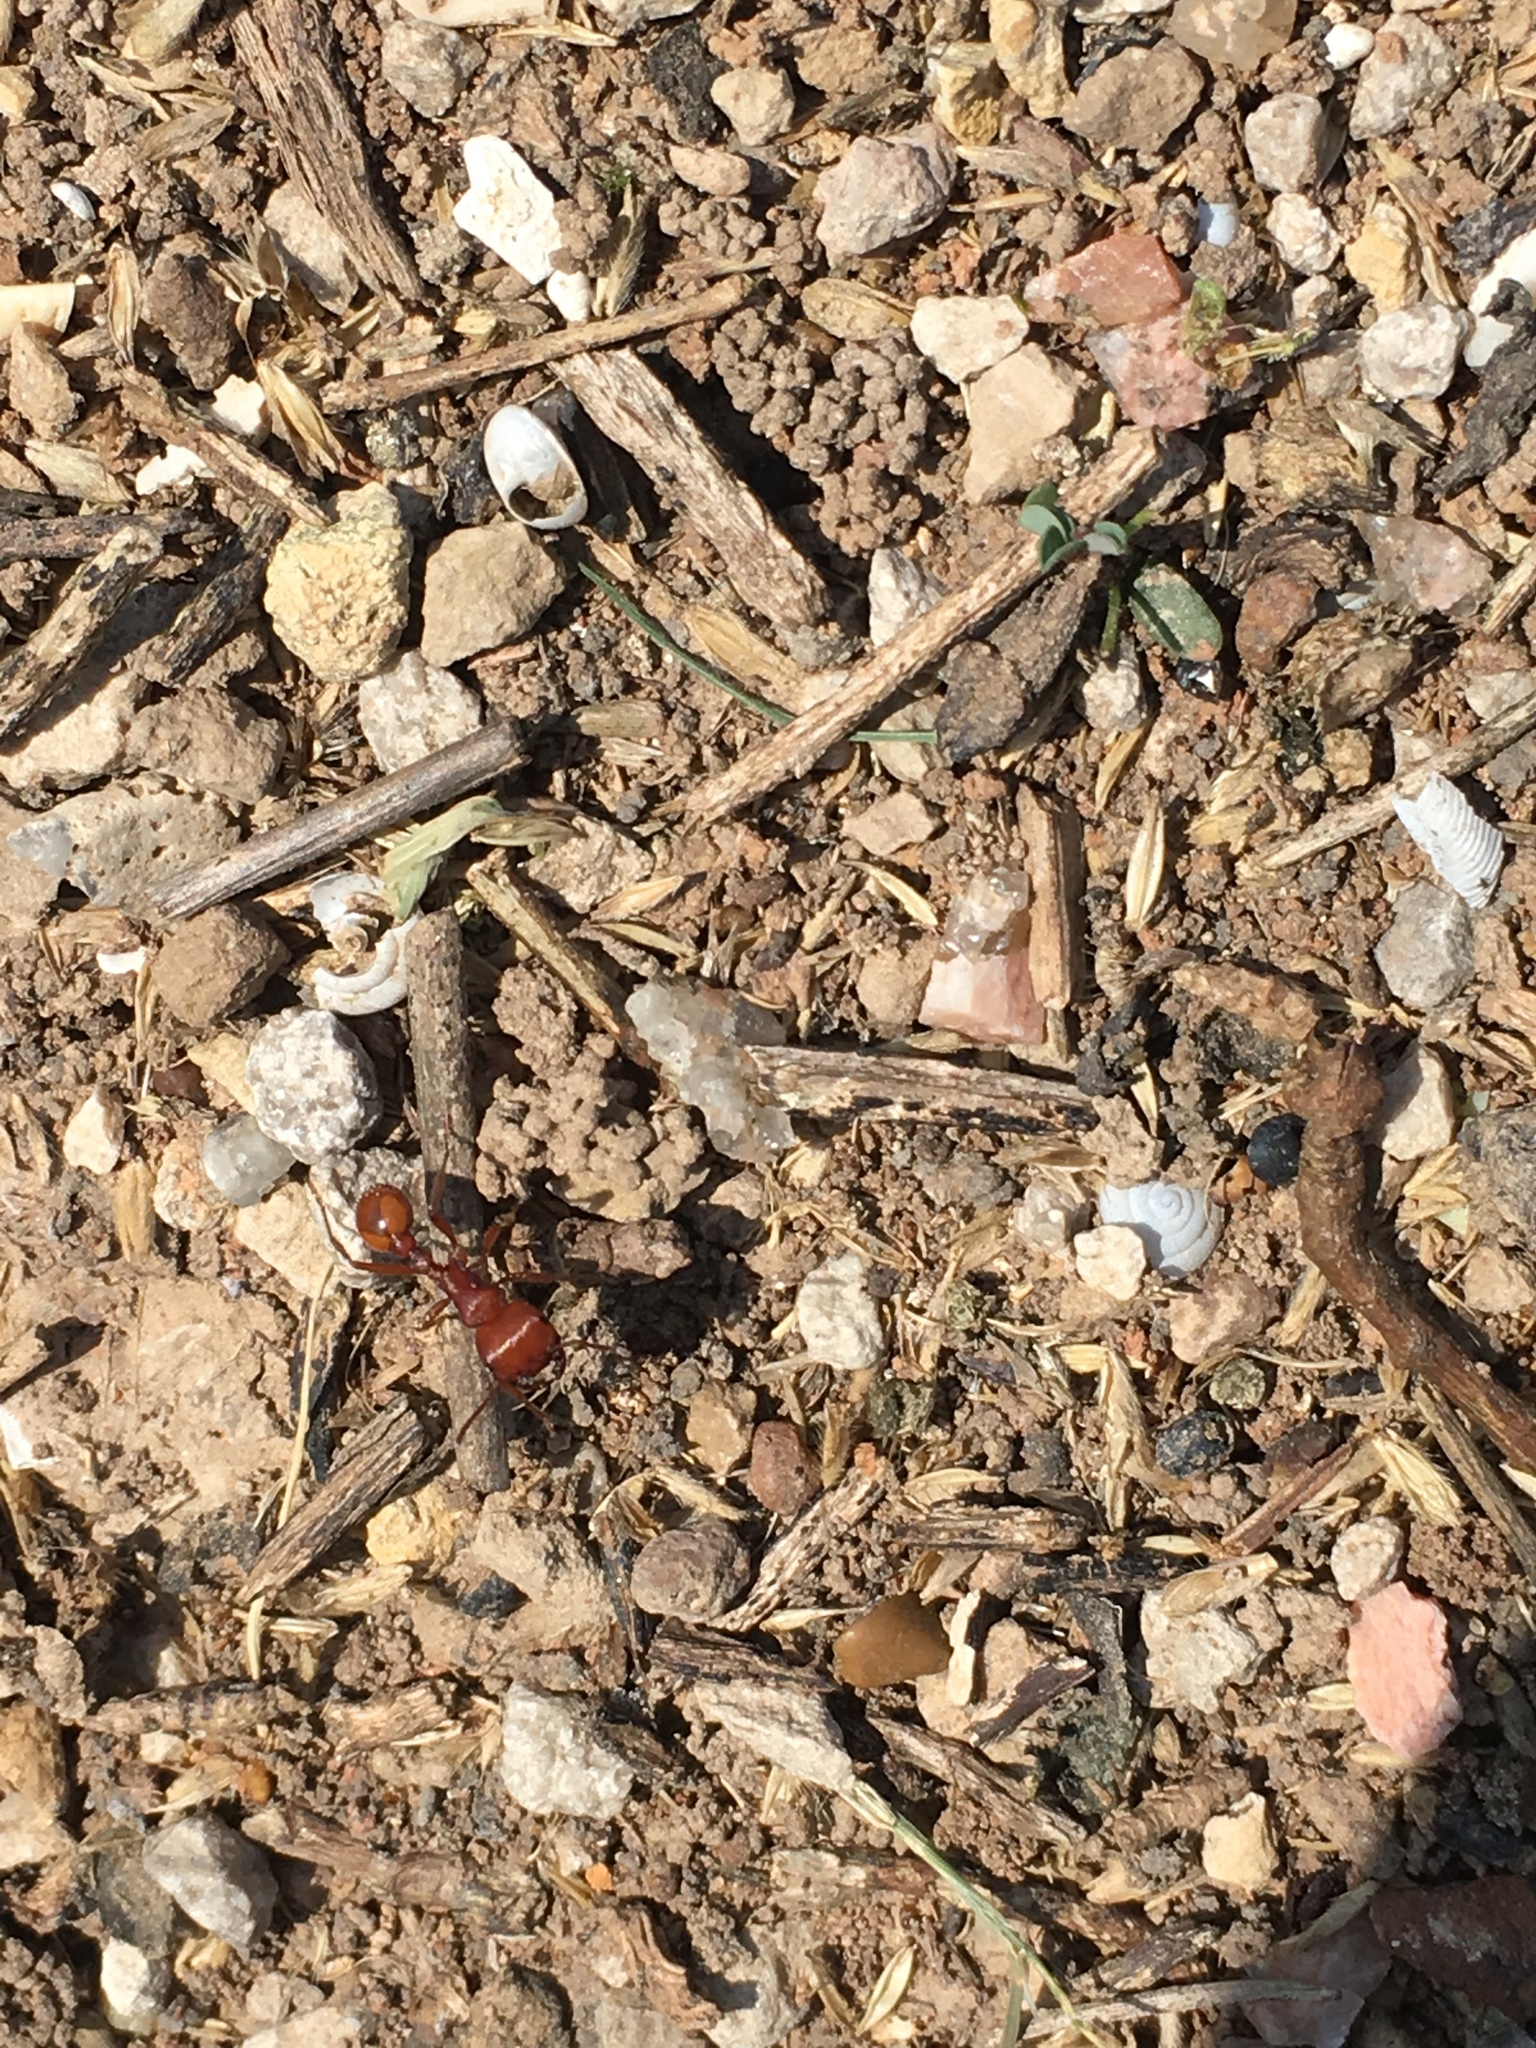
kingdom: Animalia
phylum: Arthropoda
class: Insecta
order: Hymenoptera
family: Formicidae
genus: Pogonomyrmex
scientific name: Pogonomyrmex barbatus
